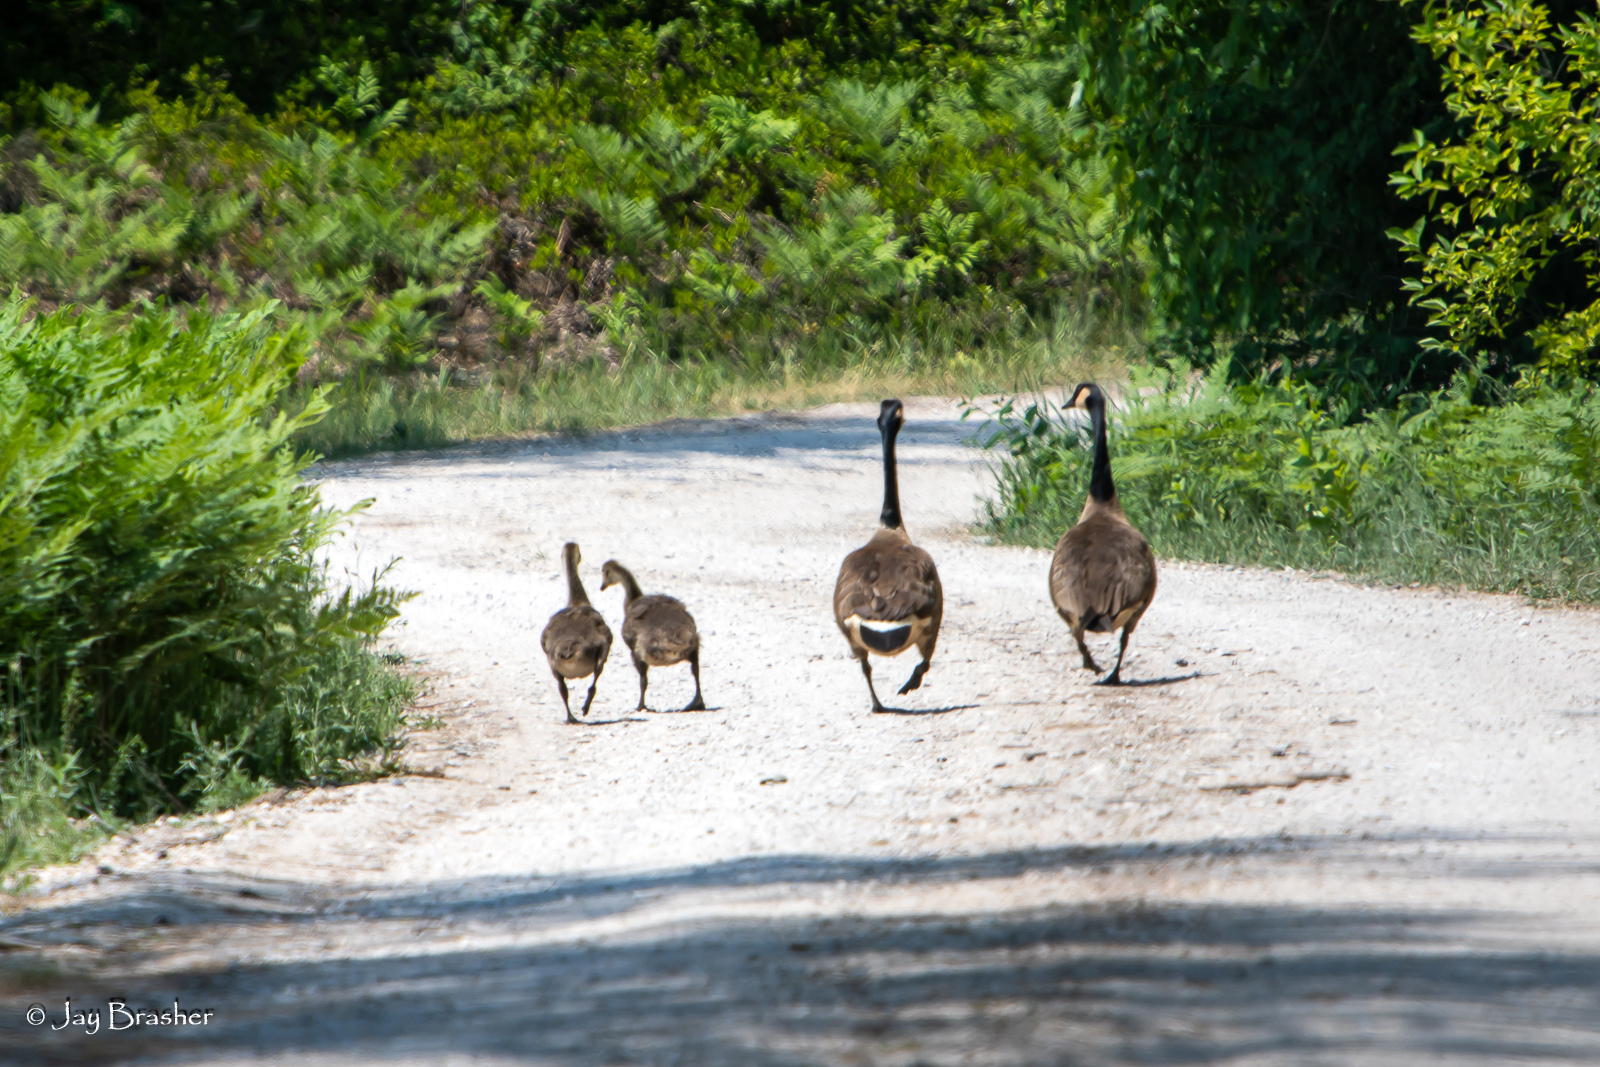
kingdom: Animalia
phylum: Chordata
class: Aves
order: Anseriformes
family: Anatidae
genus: Branta
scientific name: Branta canadensis
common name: Canada goose
